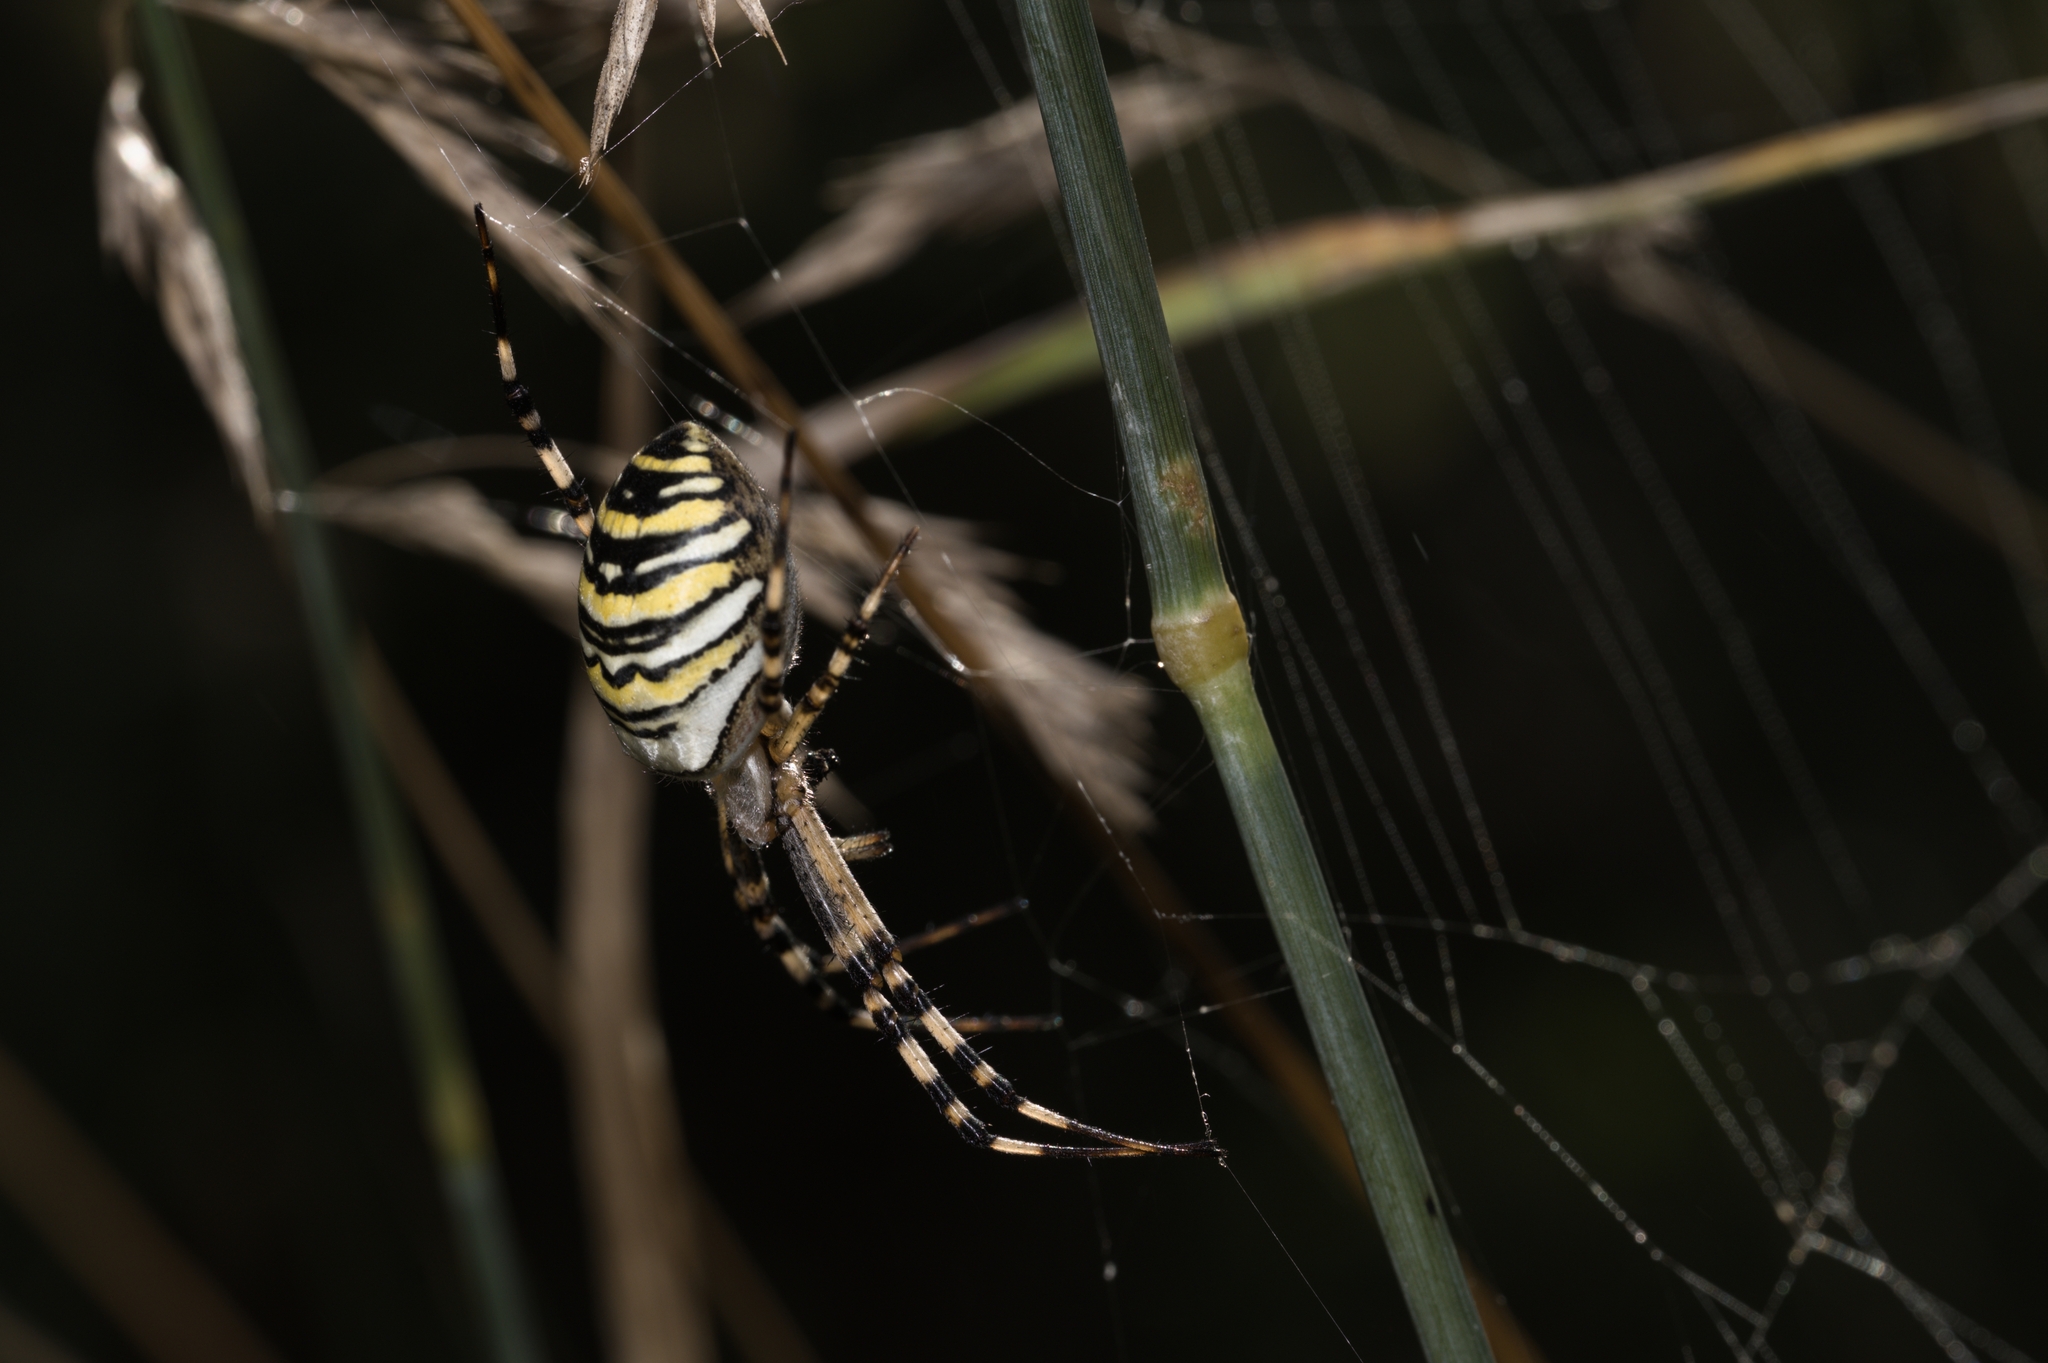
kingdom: Animalia
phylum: Arthropoda
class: Arachnida
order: Araneae
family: Araneidae
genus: Argiope
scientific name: Argiope bruennichi
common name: Wasp spider
